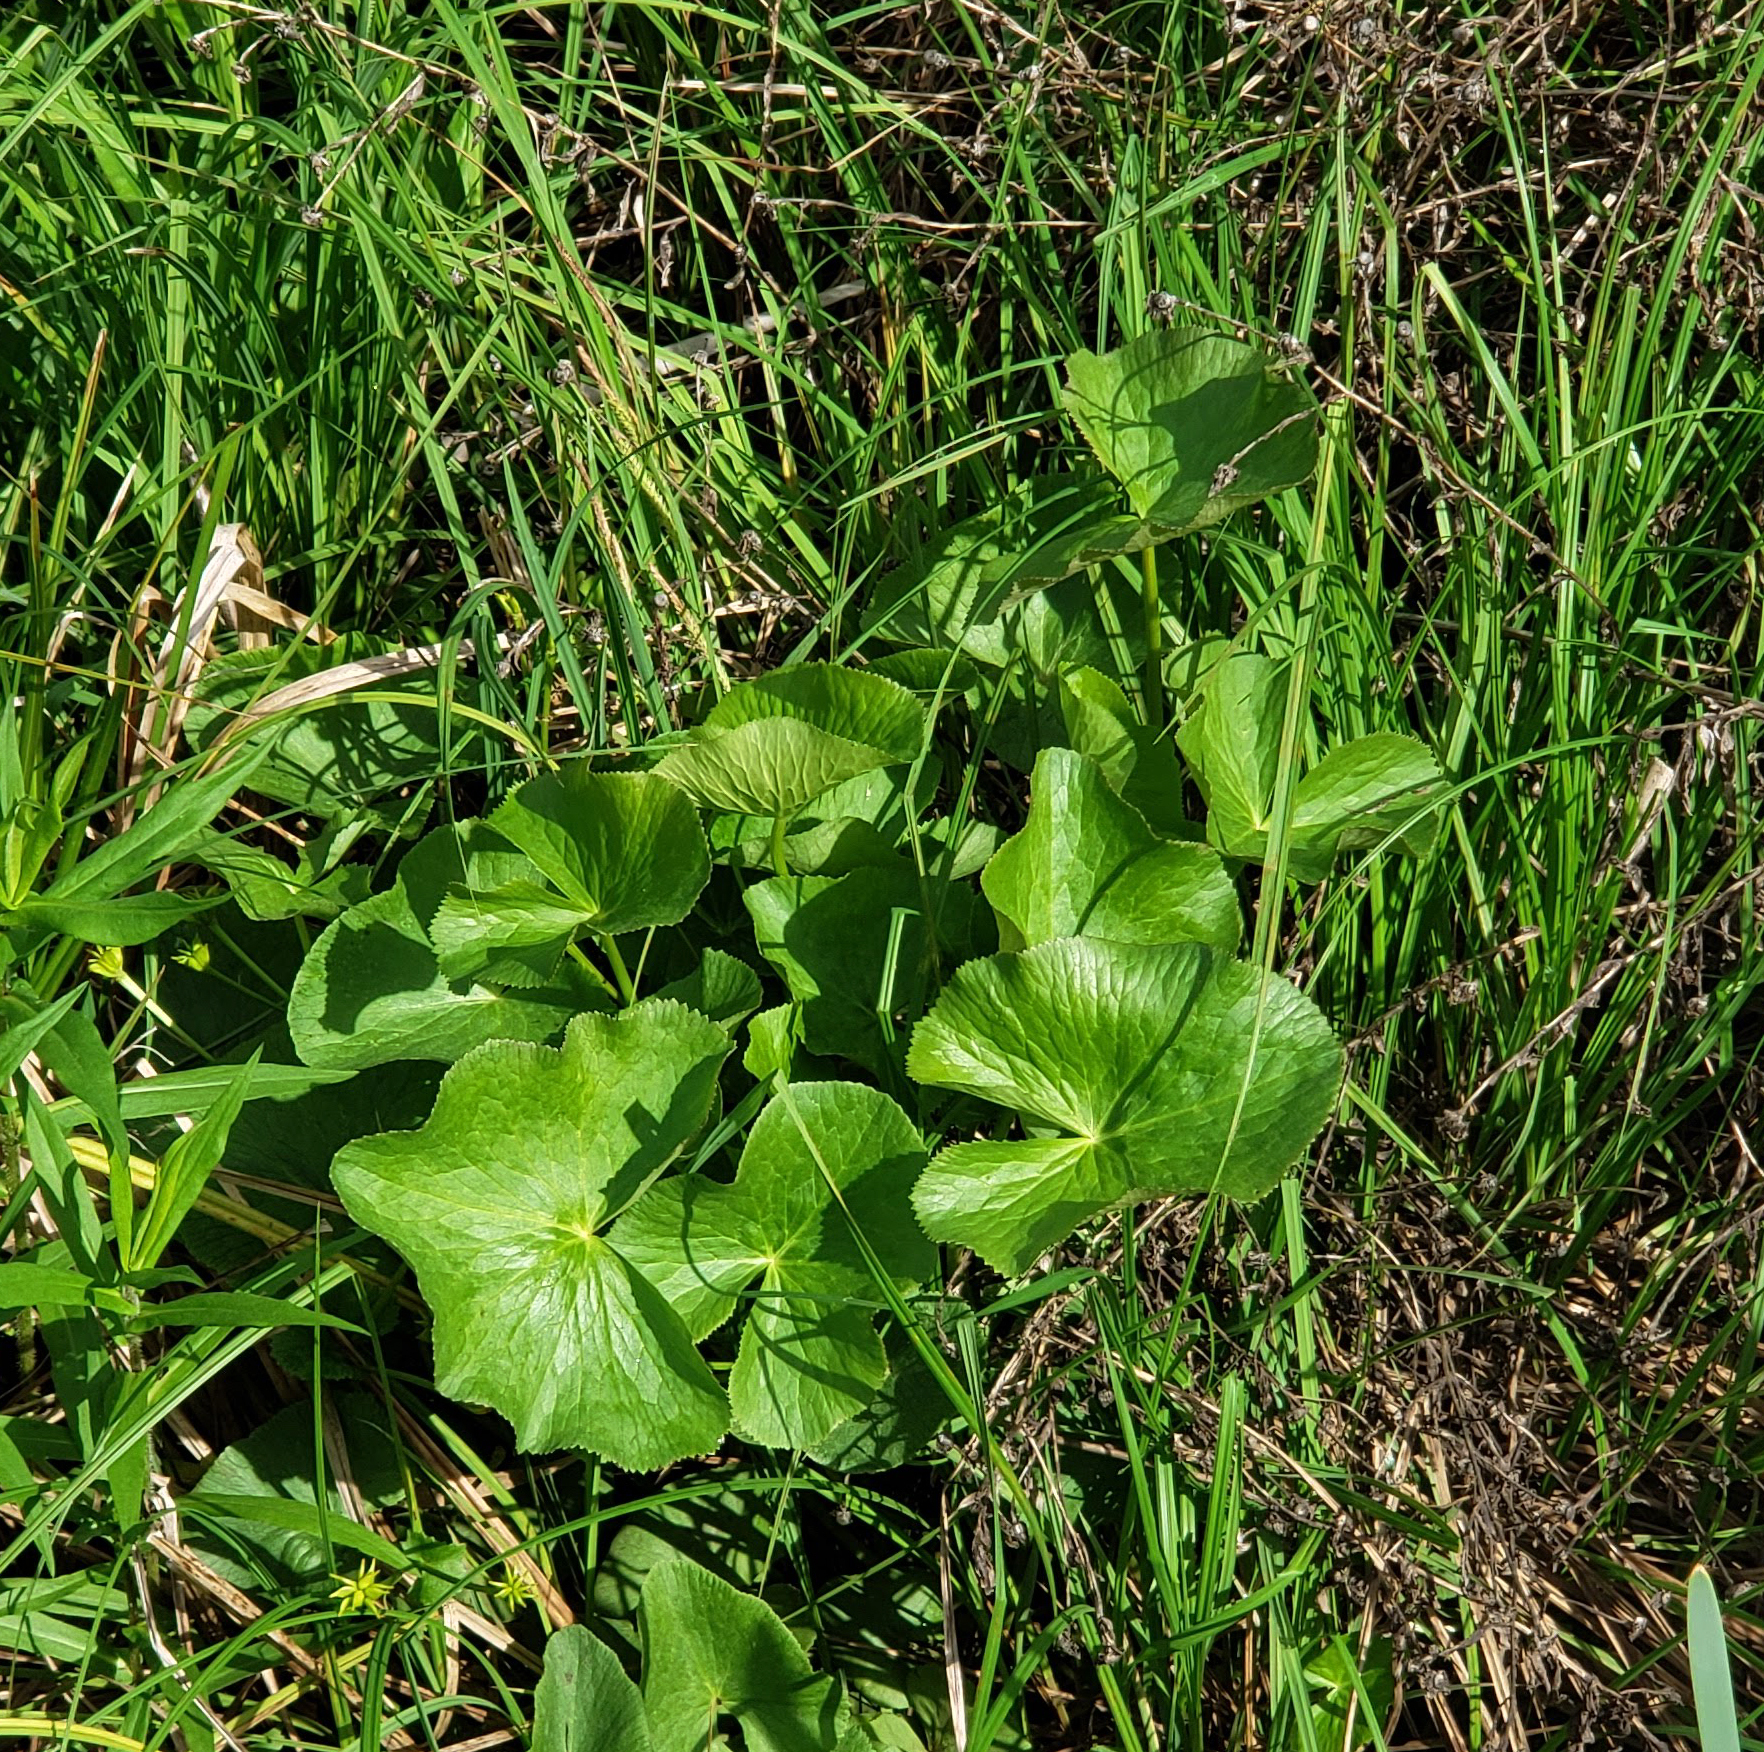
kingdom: Plantae
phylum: Tracheophyta
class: Magnoliopsida
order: Ranunculales
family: Ranunculaceae
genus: Caltha
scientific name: Caltha palustris
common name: Marsh marigold
